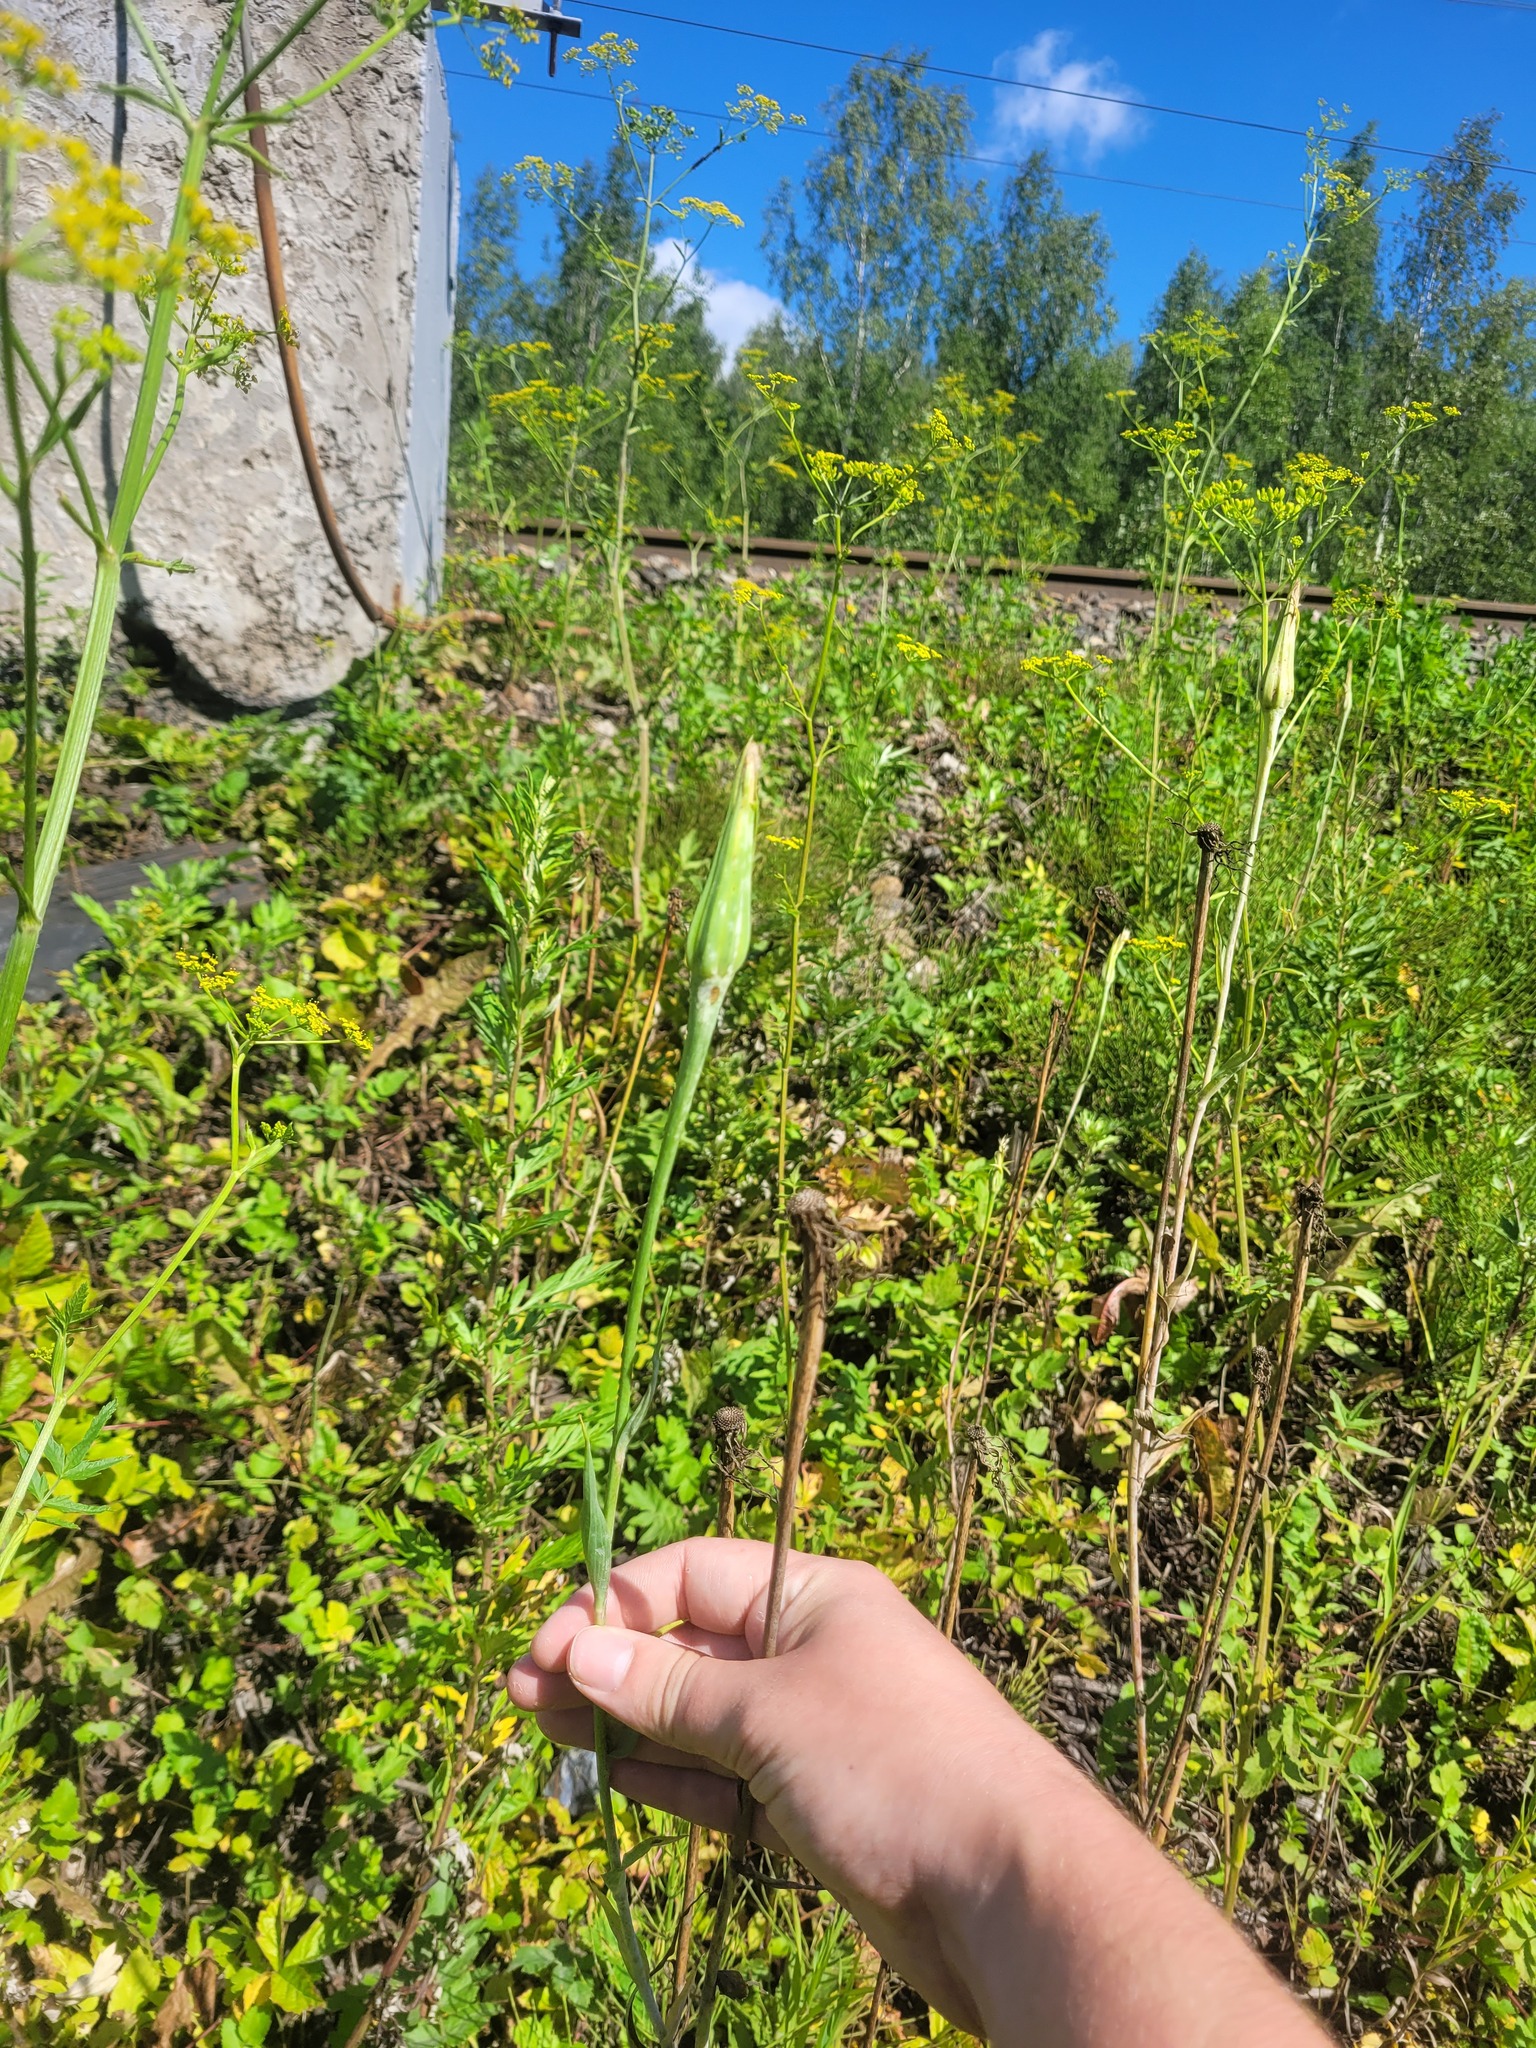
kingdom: Plantae
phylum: Tracheophyta
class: Magnoliopsida
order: Asterales
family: Asteraceae
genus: Tragopogon
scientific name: Tragopogon dubius
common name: Yellow salsify
